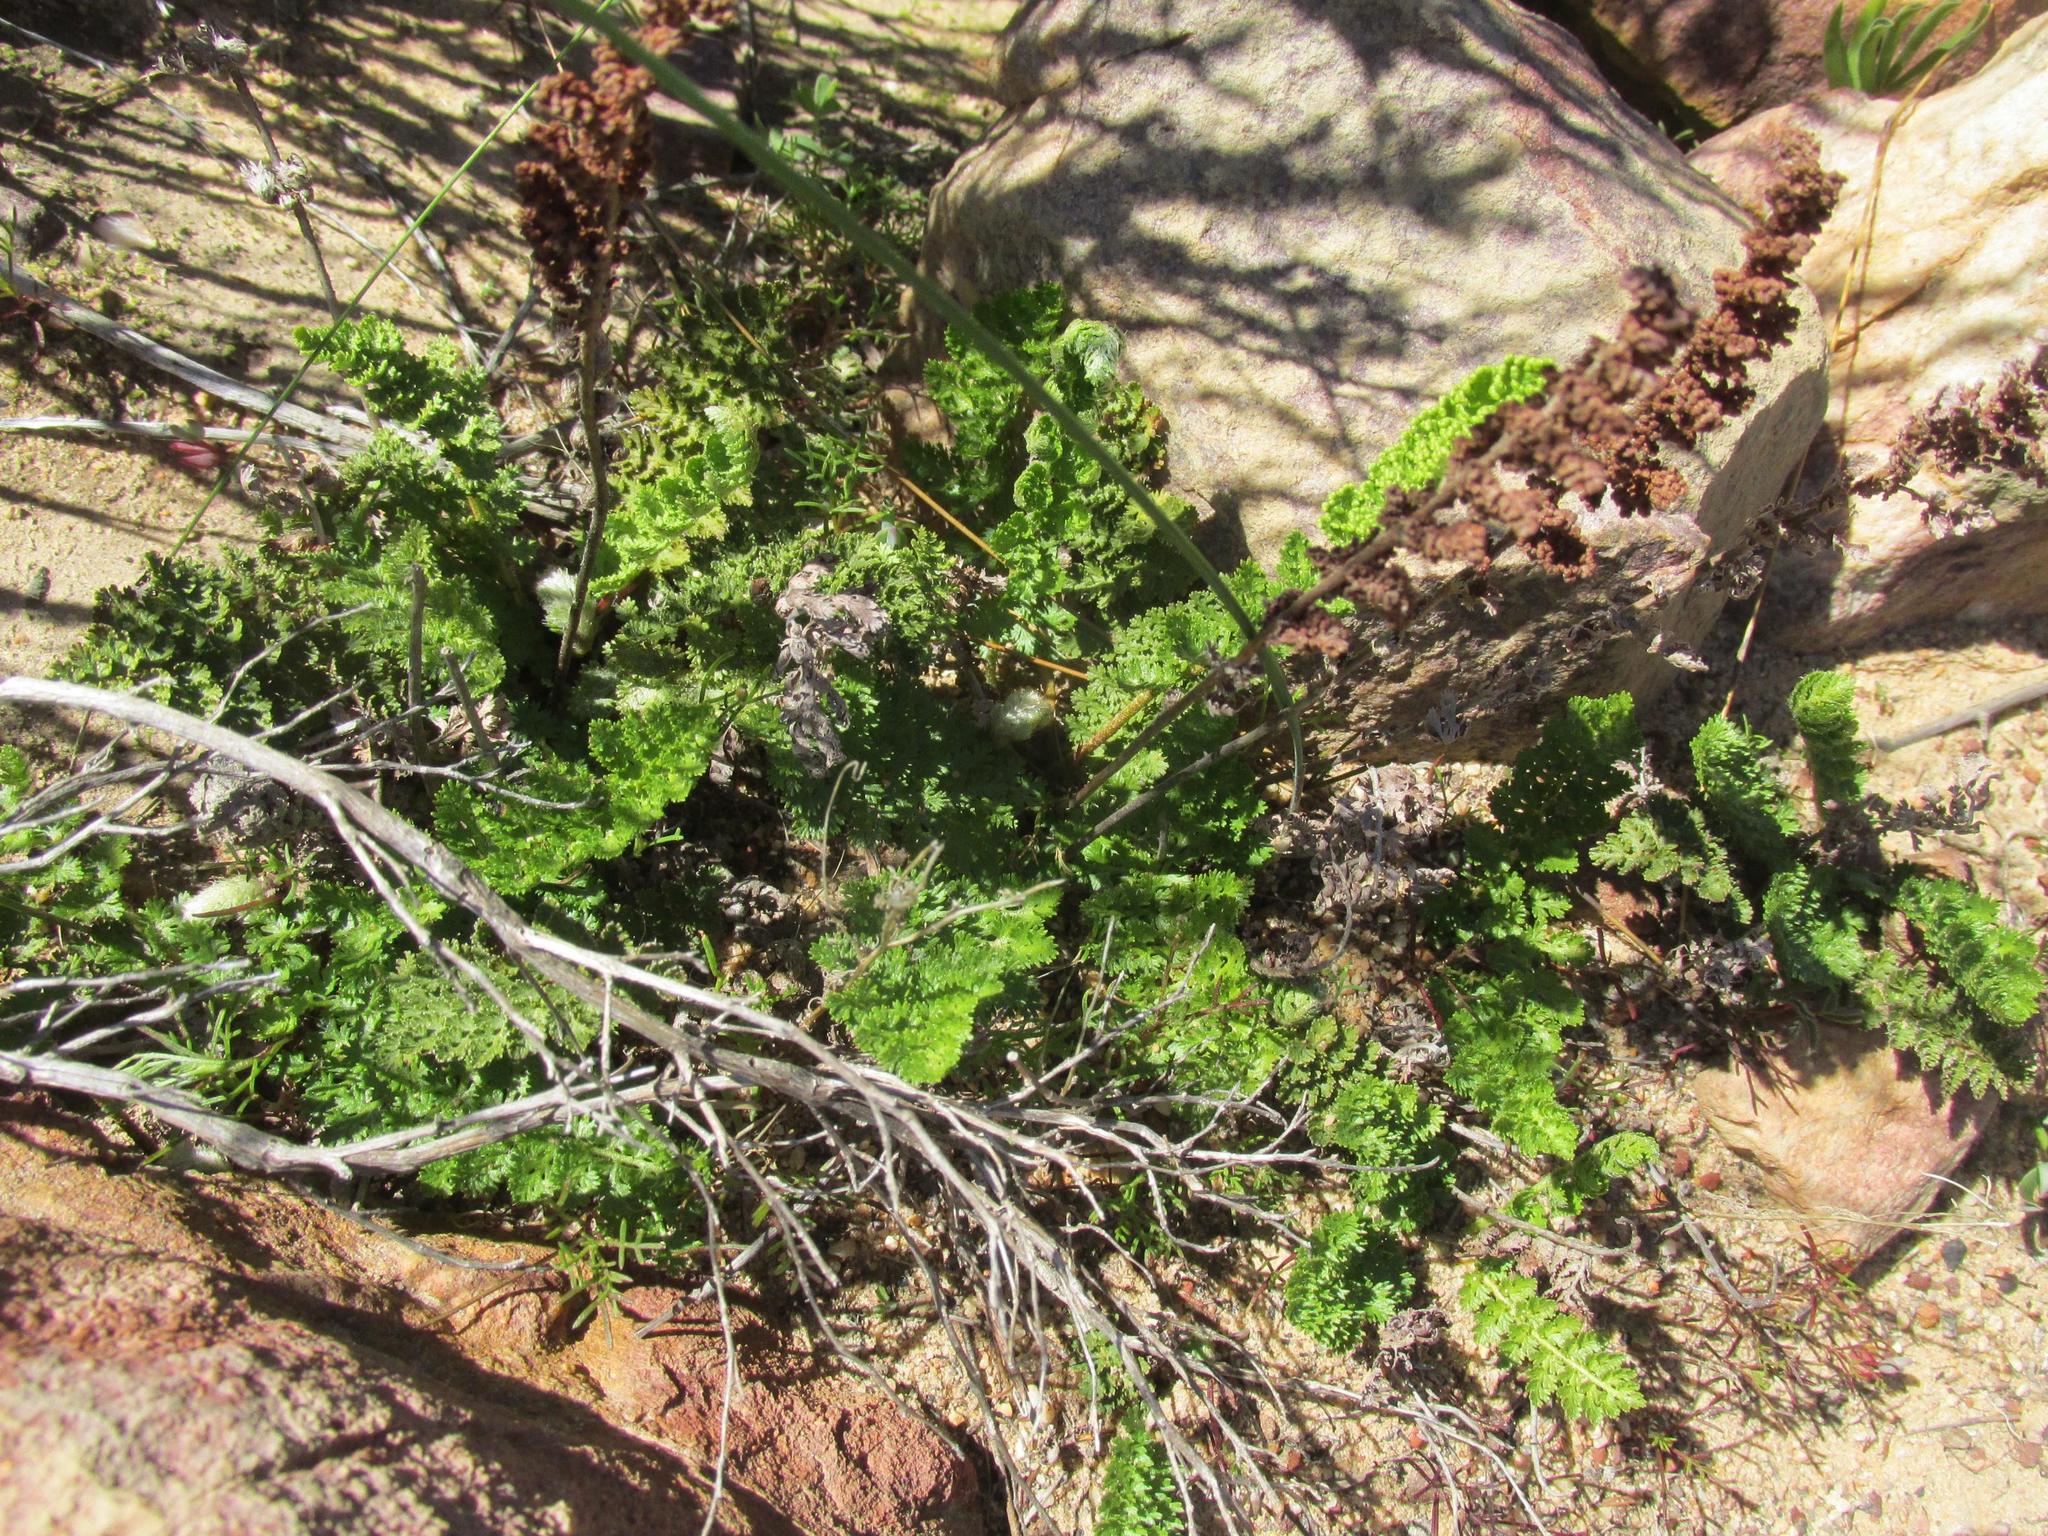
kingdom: Plantae
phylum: Tracheophyta
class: Polypodiopsida
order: Schizaeales
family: Anemiaceae
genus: Anemia
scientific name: Anemia caffrorum
